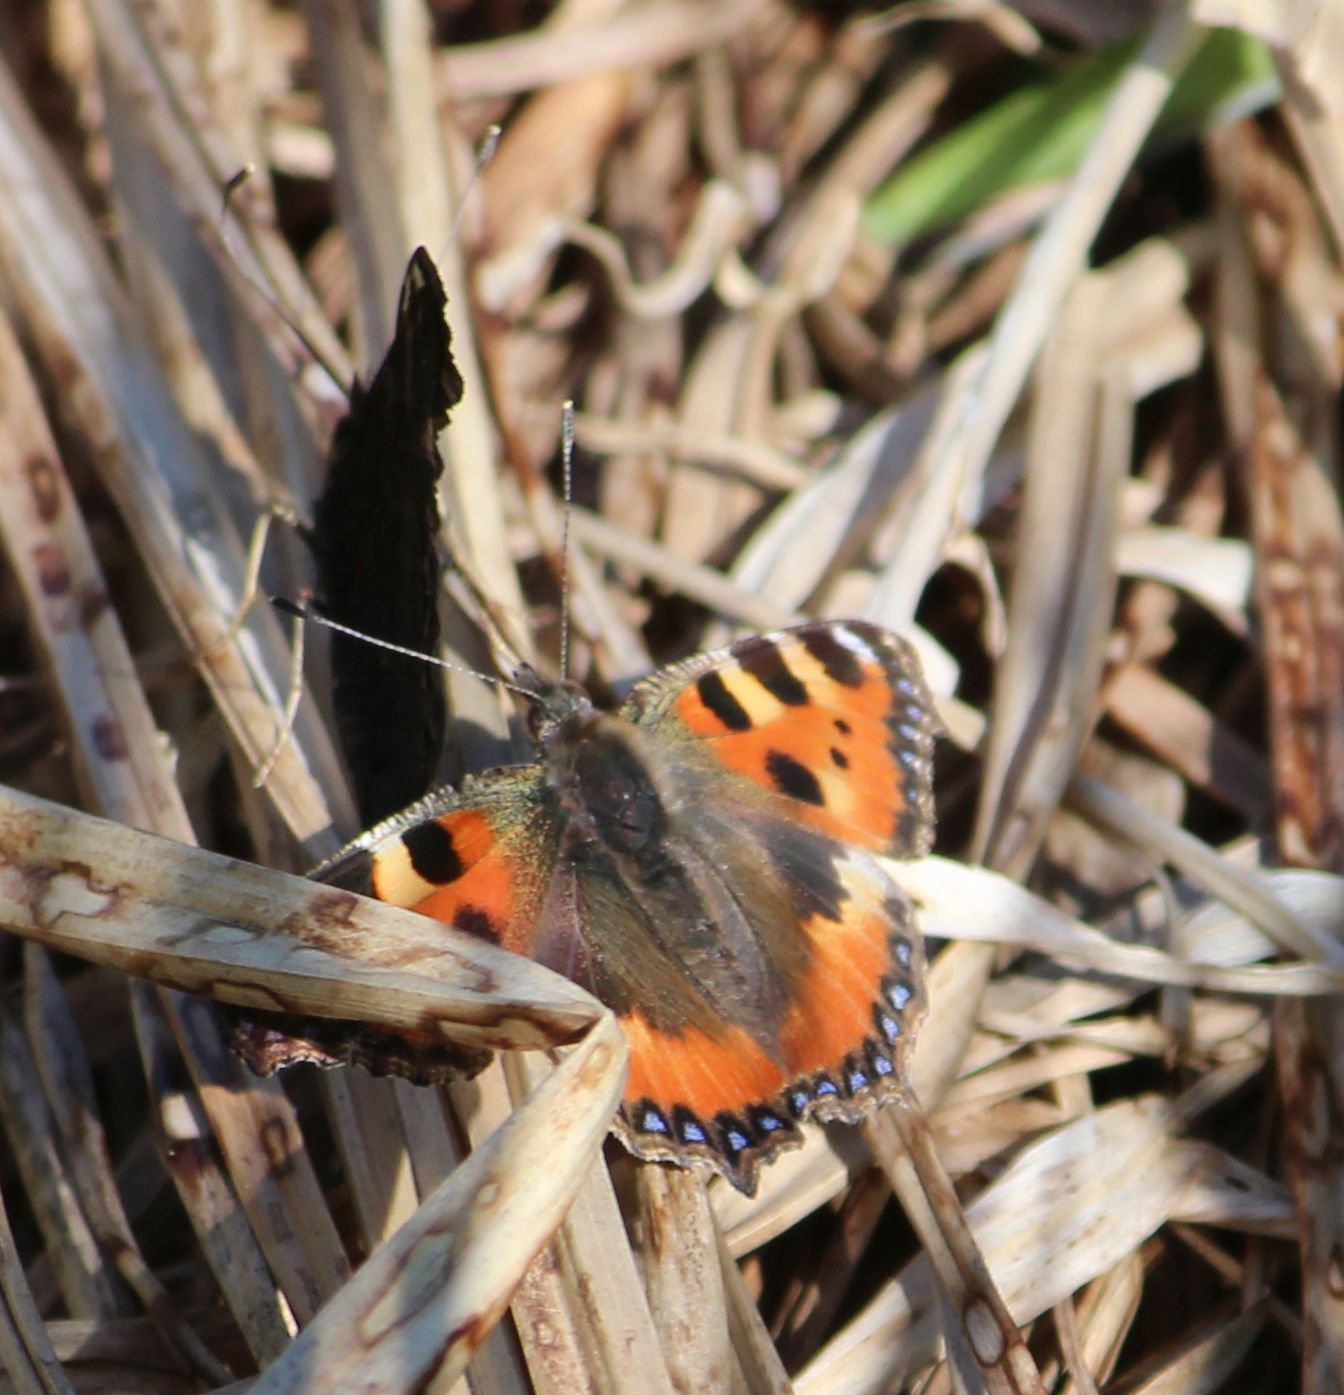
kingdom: Animalia
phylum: Arthropoda
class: Insecta
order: Lepidoptera
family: Nymphalidae
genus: Aglais
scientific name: Aglais urticae
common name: Small tortoiseshell
